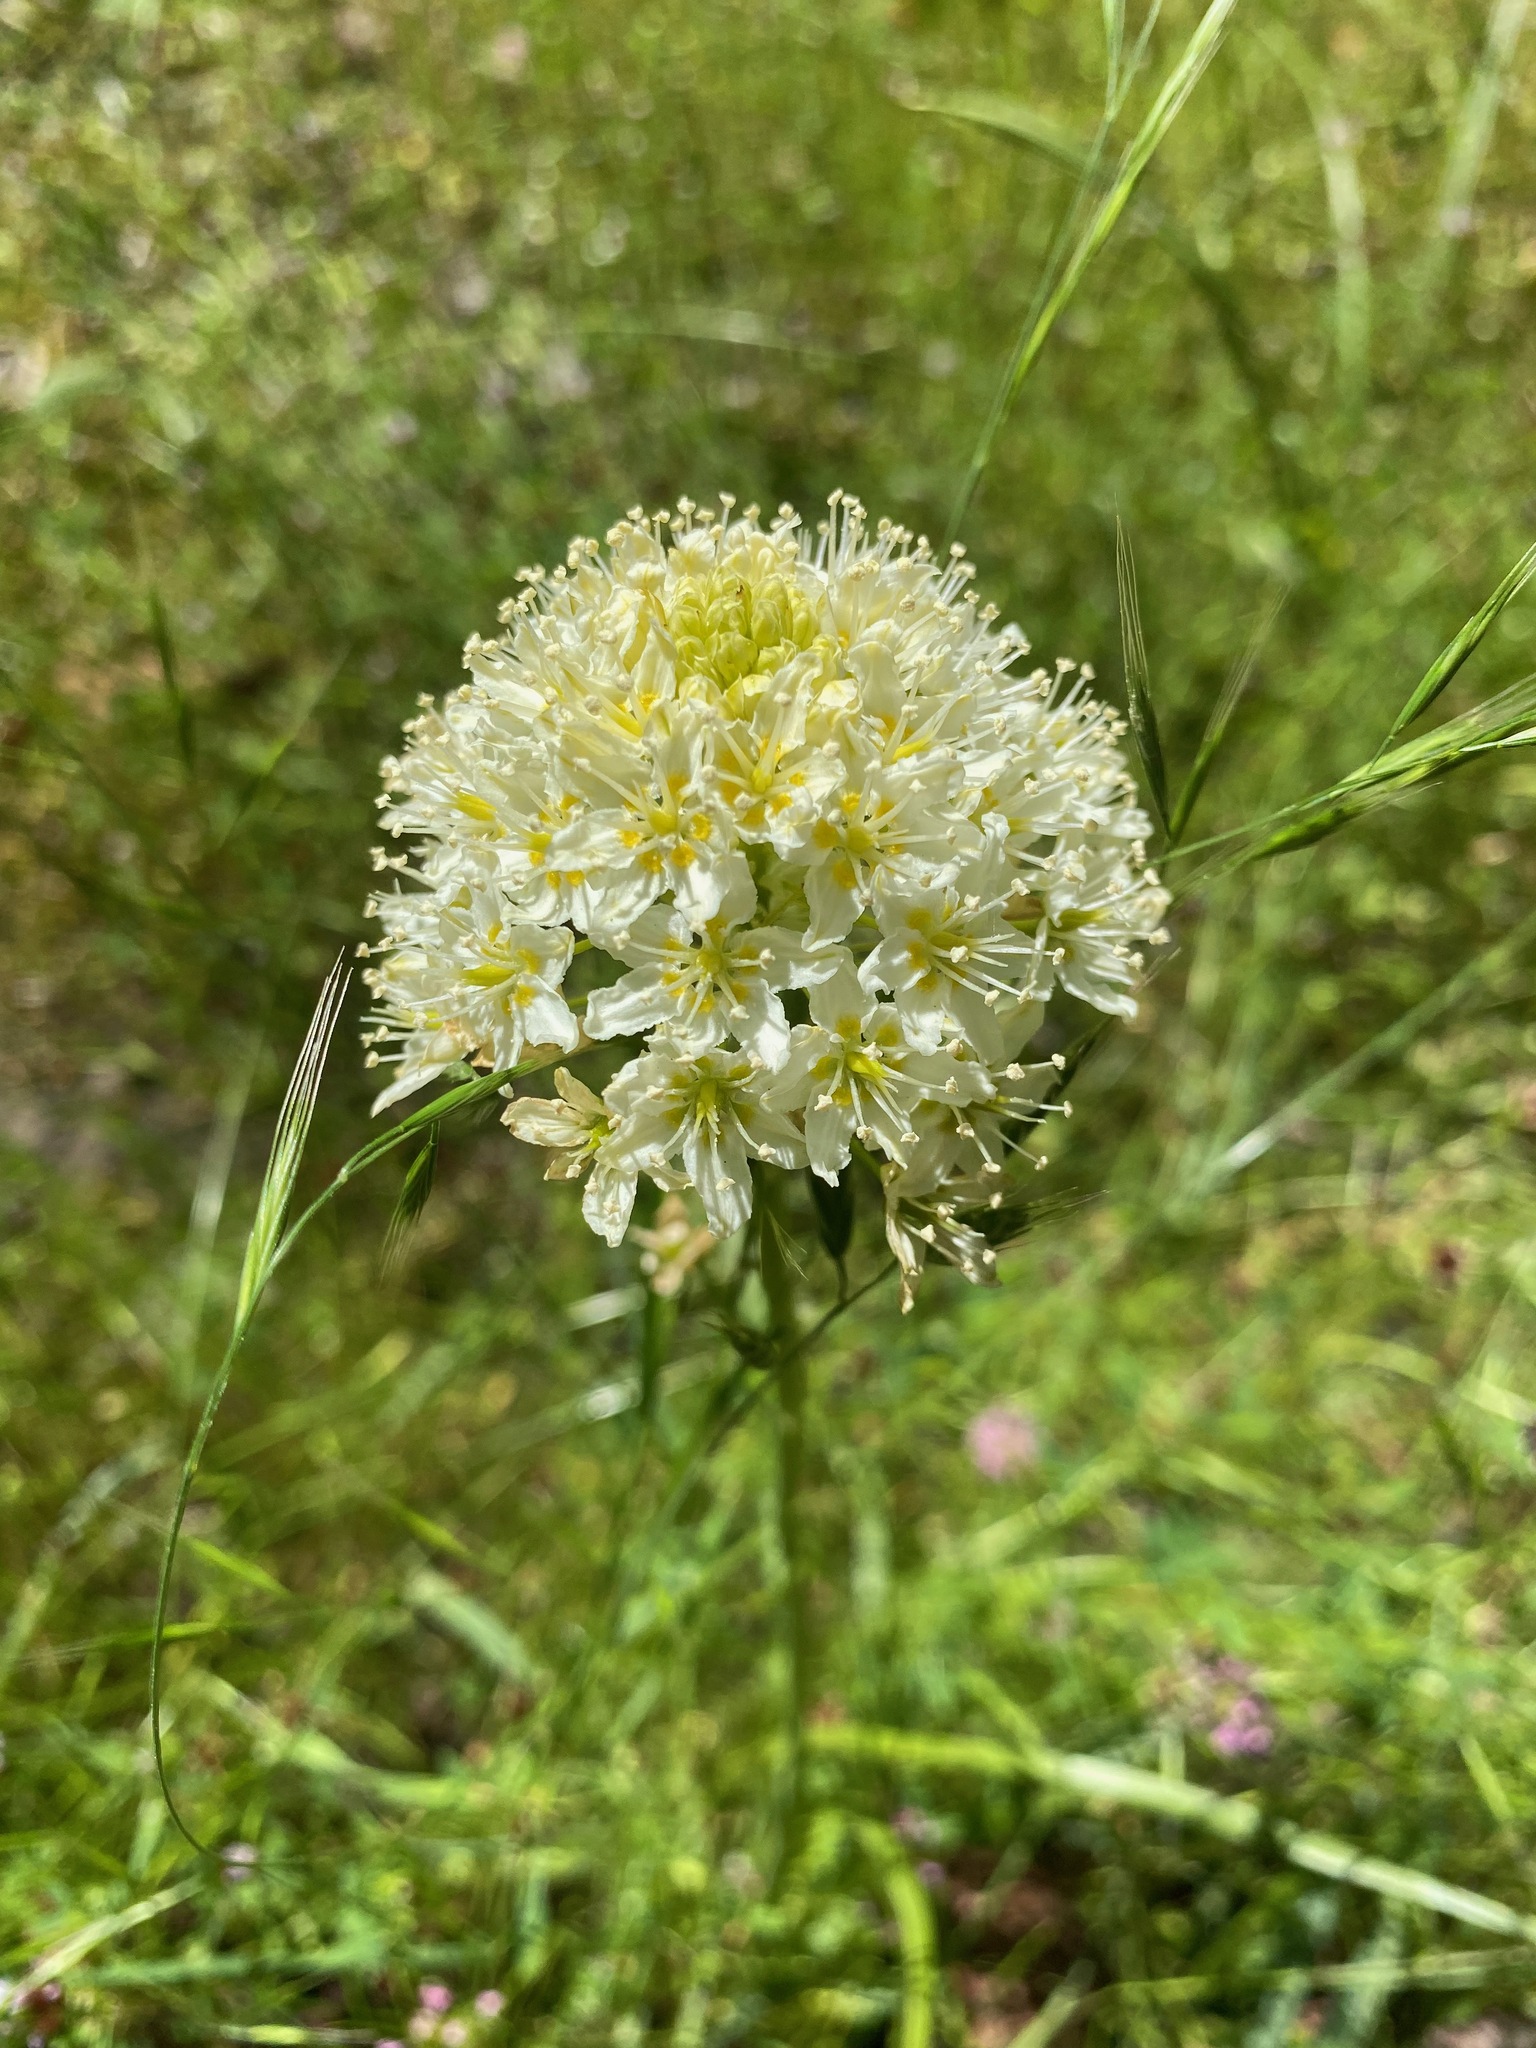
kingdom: Plantae
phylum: Tracheophyta
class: Liliopsida
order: Liliales
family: Melanthiaceae
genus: Toxicoscordion
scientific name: Toxicoscordion venenosum
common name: Meadow death camas
